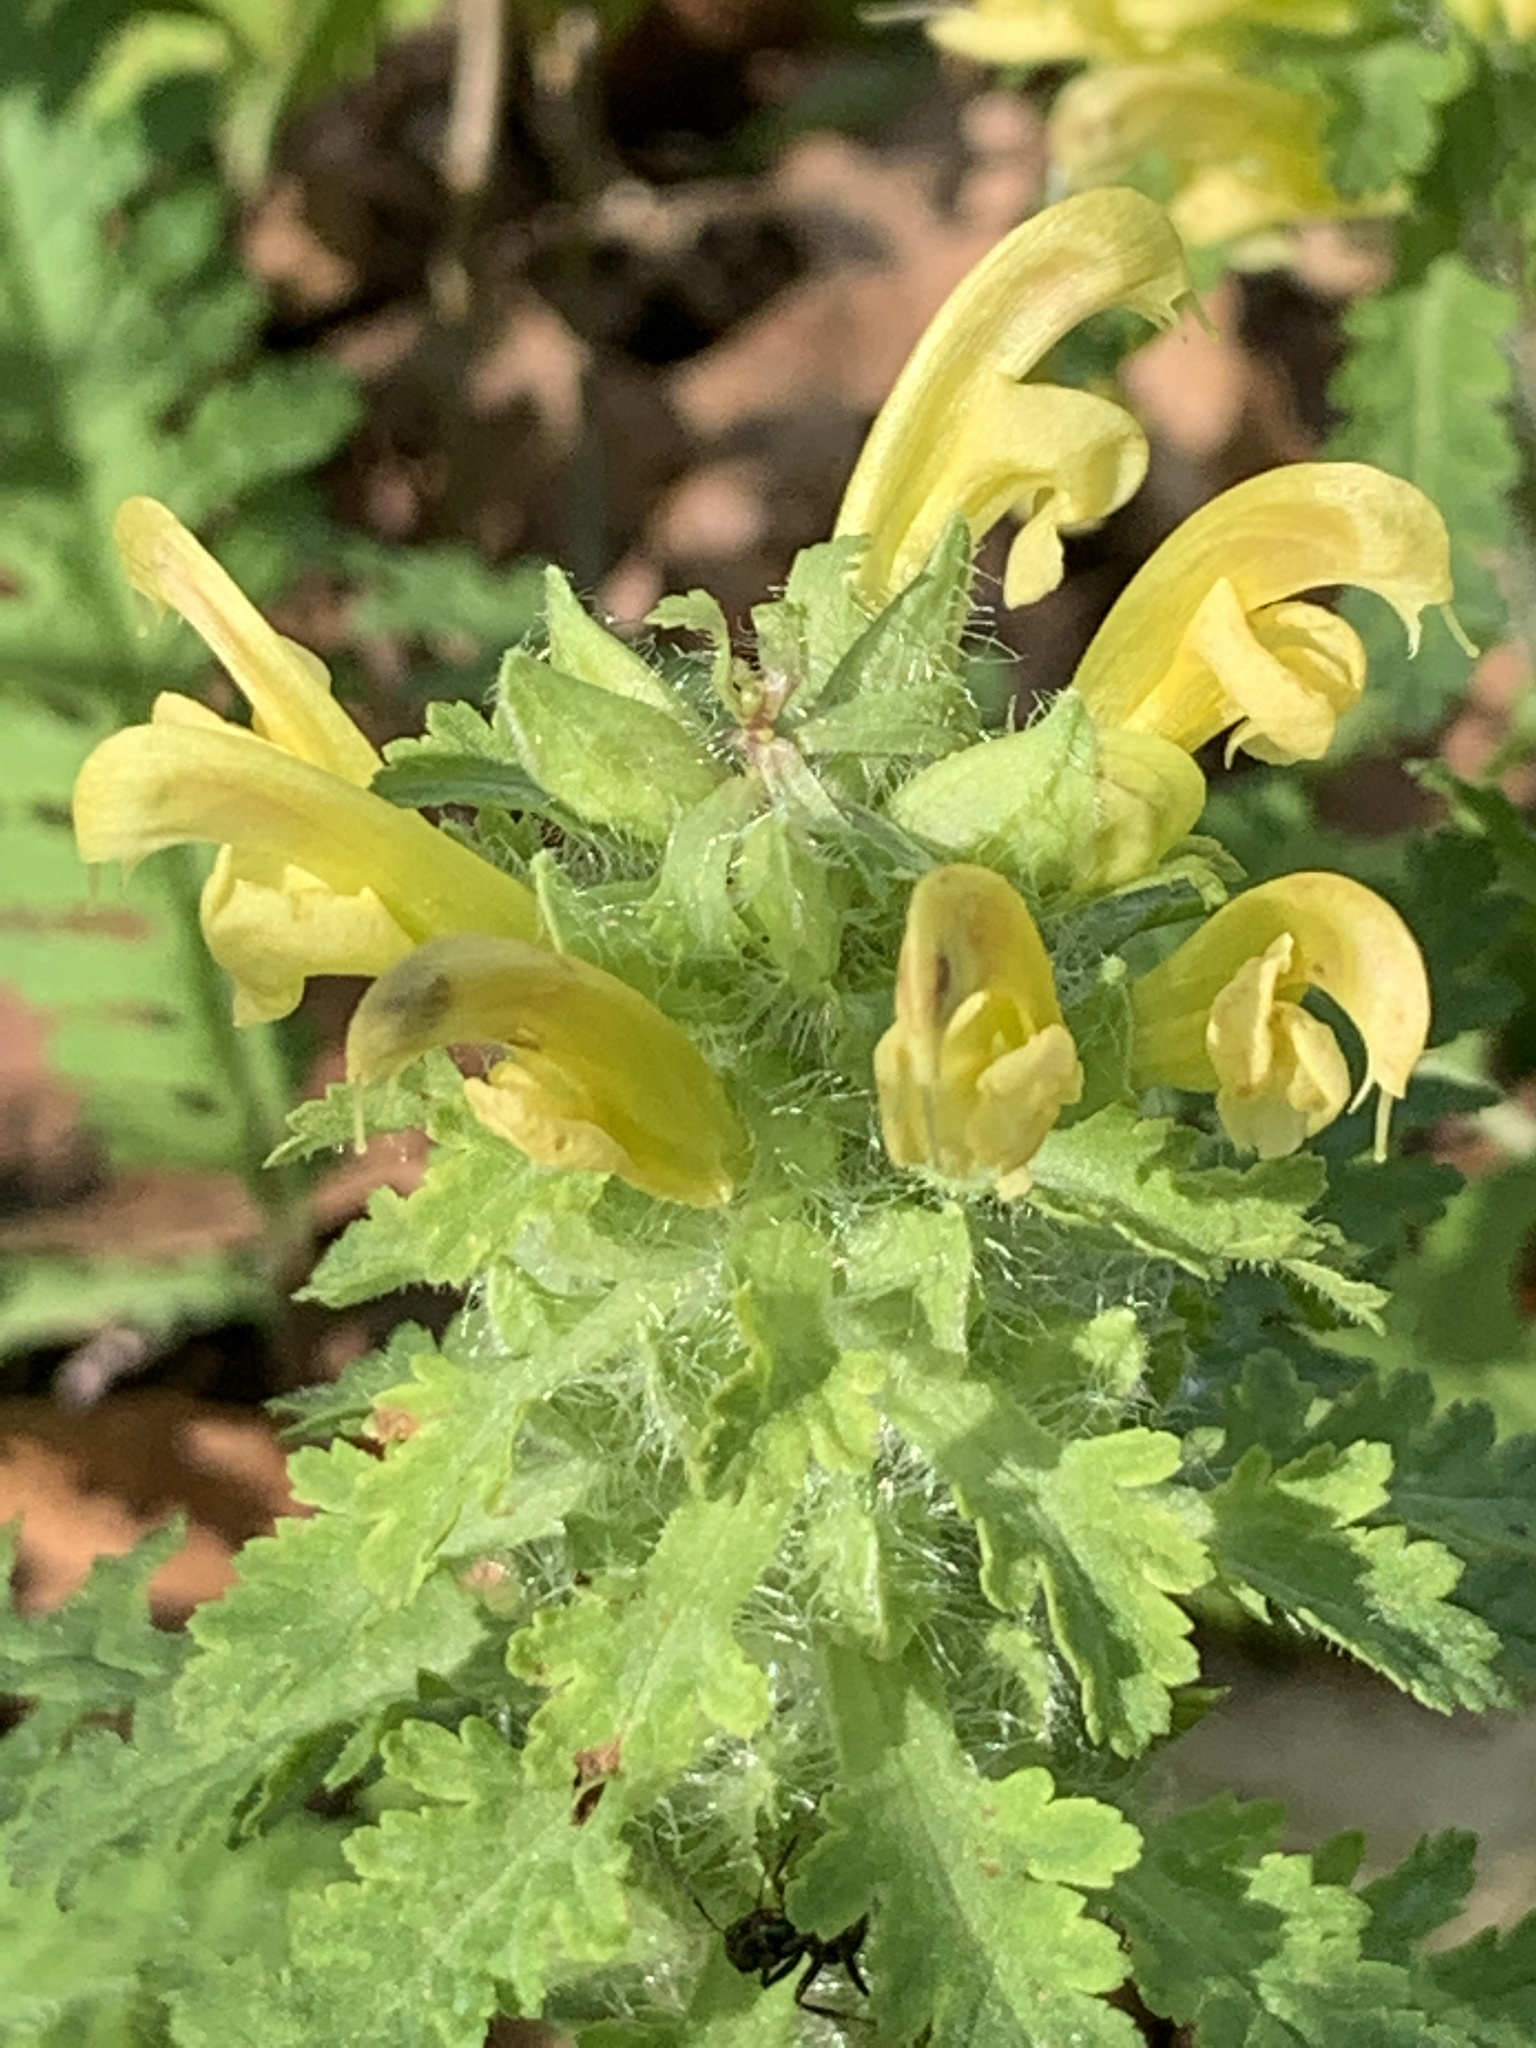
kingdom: Plantae
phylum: Tracheophyta
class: Magnoliopsida
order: Lamiales
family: Orobanchaceae
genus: Pedicularis
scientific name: Pedicularis canadensis
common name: Early lousewort
